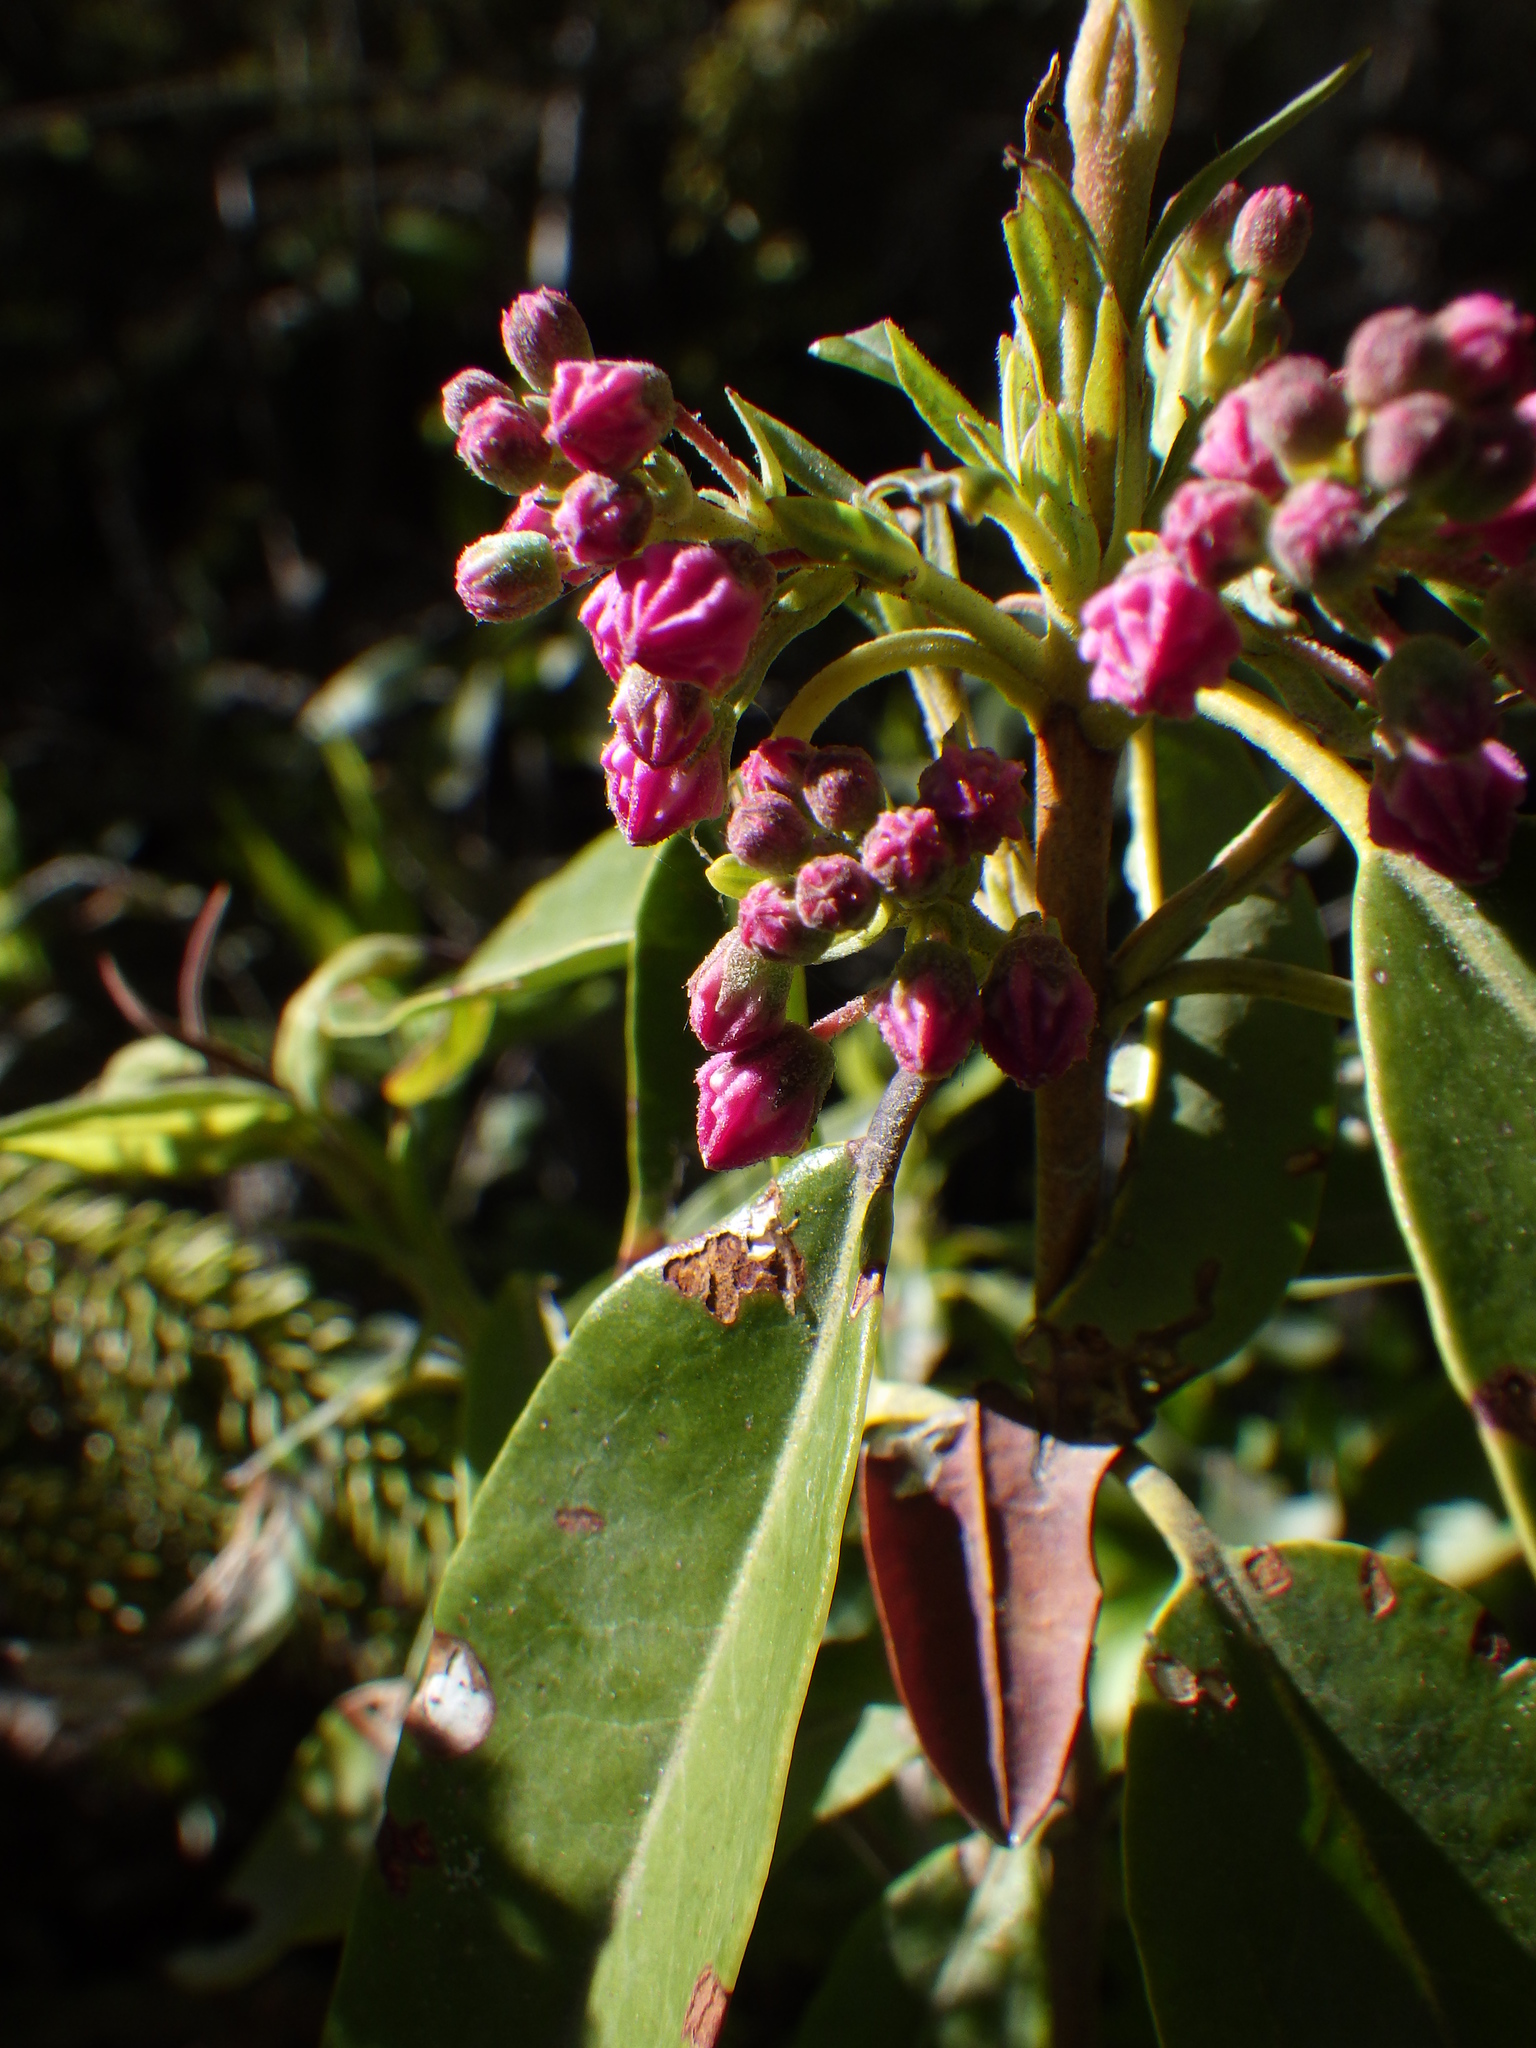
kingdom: Plantae
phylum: Tracheophyta
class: Magnoliopsida
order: Ericales
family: Ericaceae
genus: Kalmia
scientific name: Kalmia angustifolia
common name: Sheep-laurel
